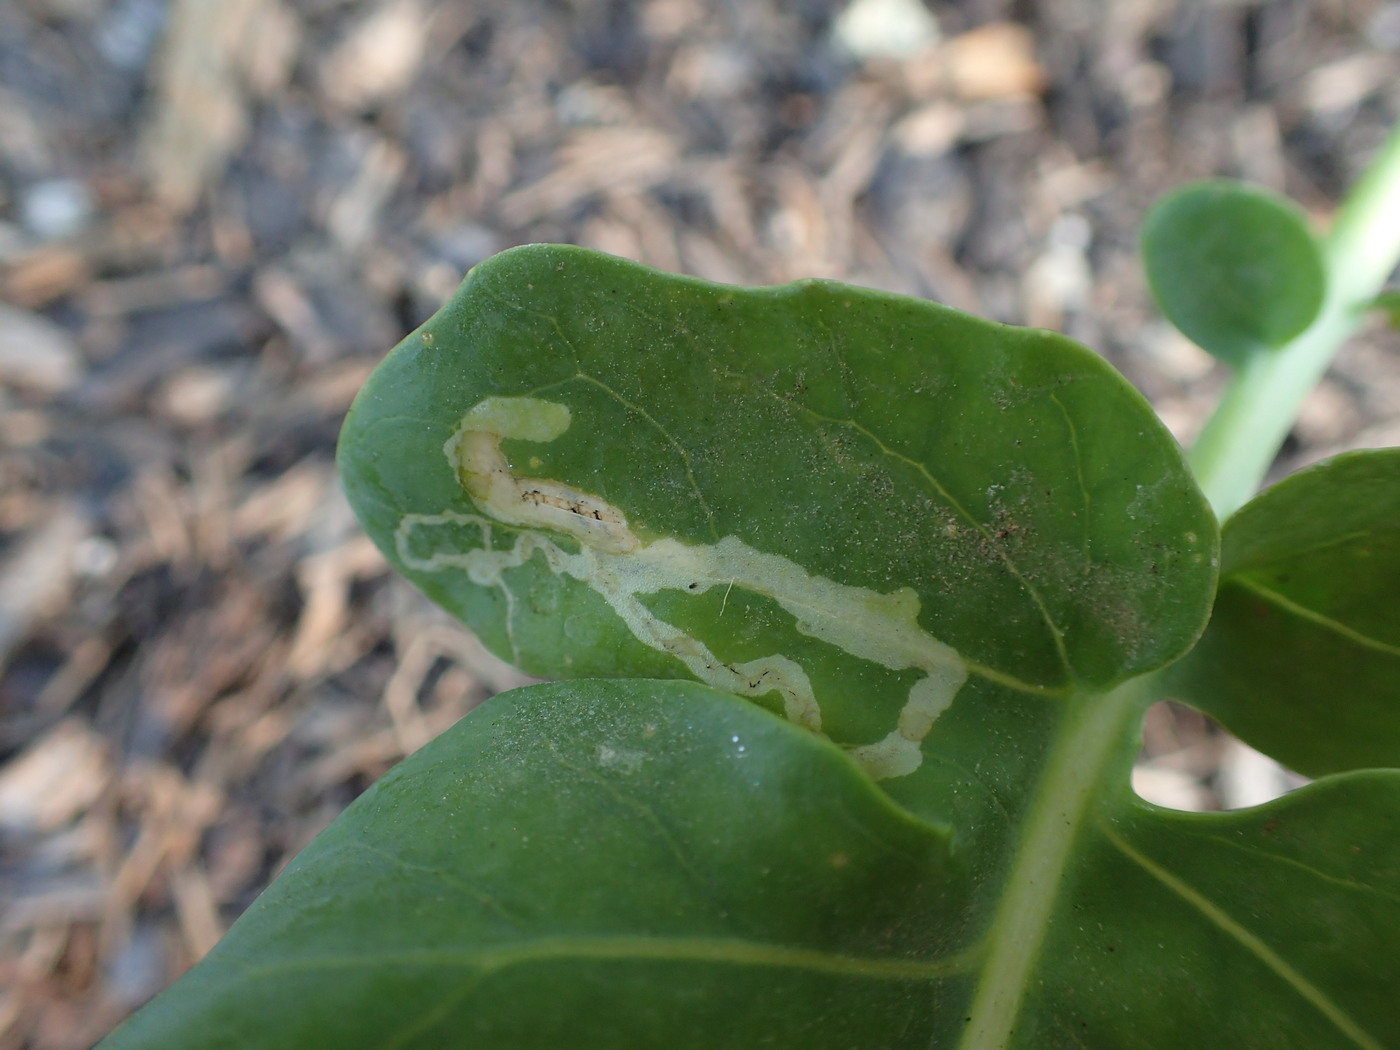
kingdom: Animalia
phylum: Arthropoda
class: Insecta
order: Diptera
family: Agromyzidae
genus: Liriomyza
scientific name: Liriomyza brassicae
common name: Serpentine leaf miner
